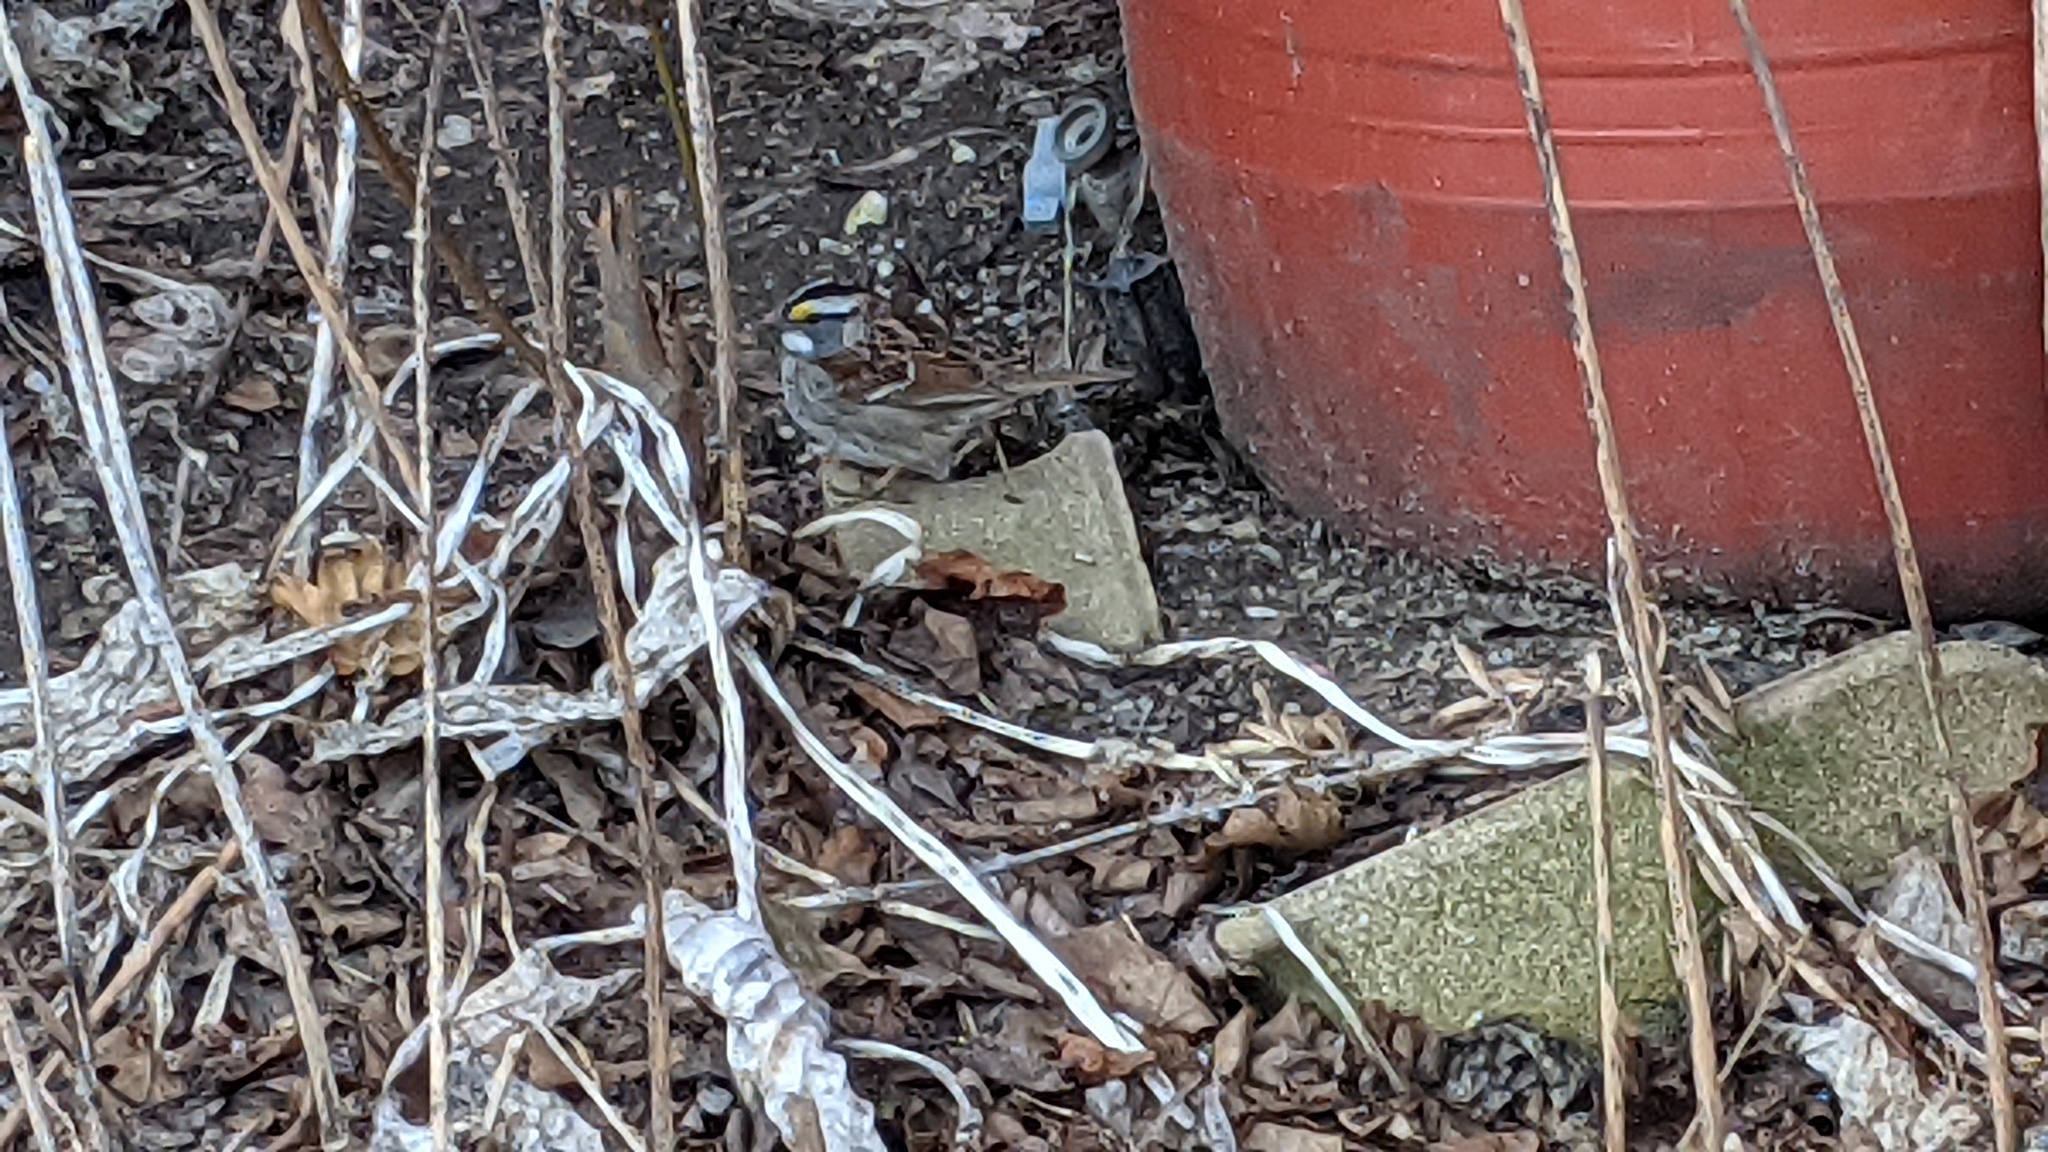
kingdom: Animalia
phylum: Chordata
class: Aves
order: Passeriformes
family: Passerellidae
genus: Zonotrichia
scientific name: Zonotrichia albicollis
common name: White-throated sparrow
